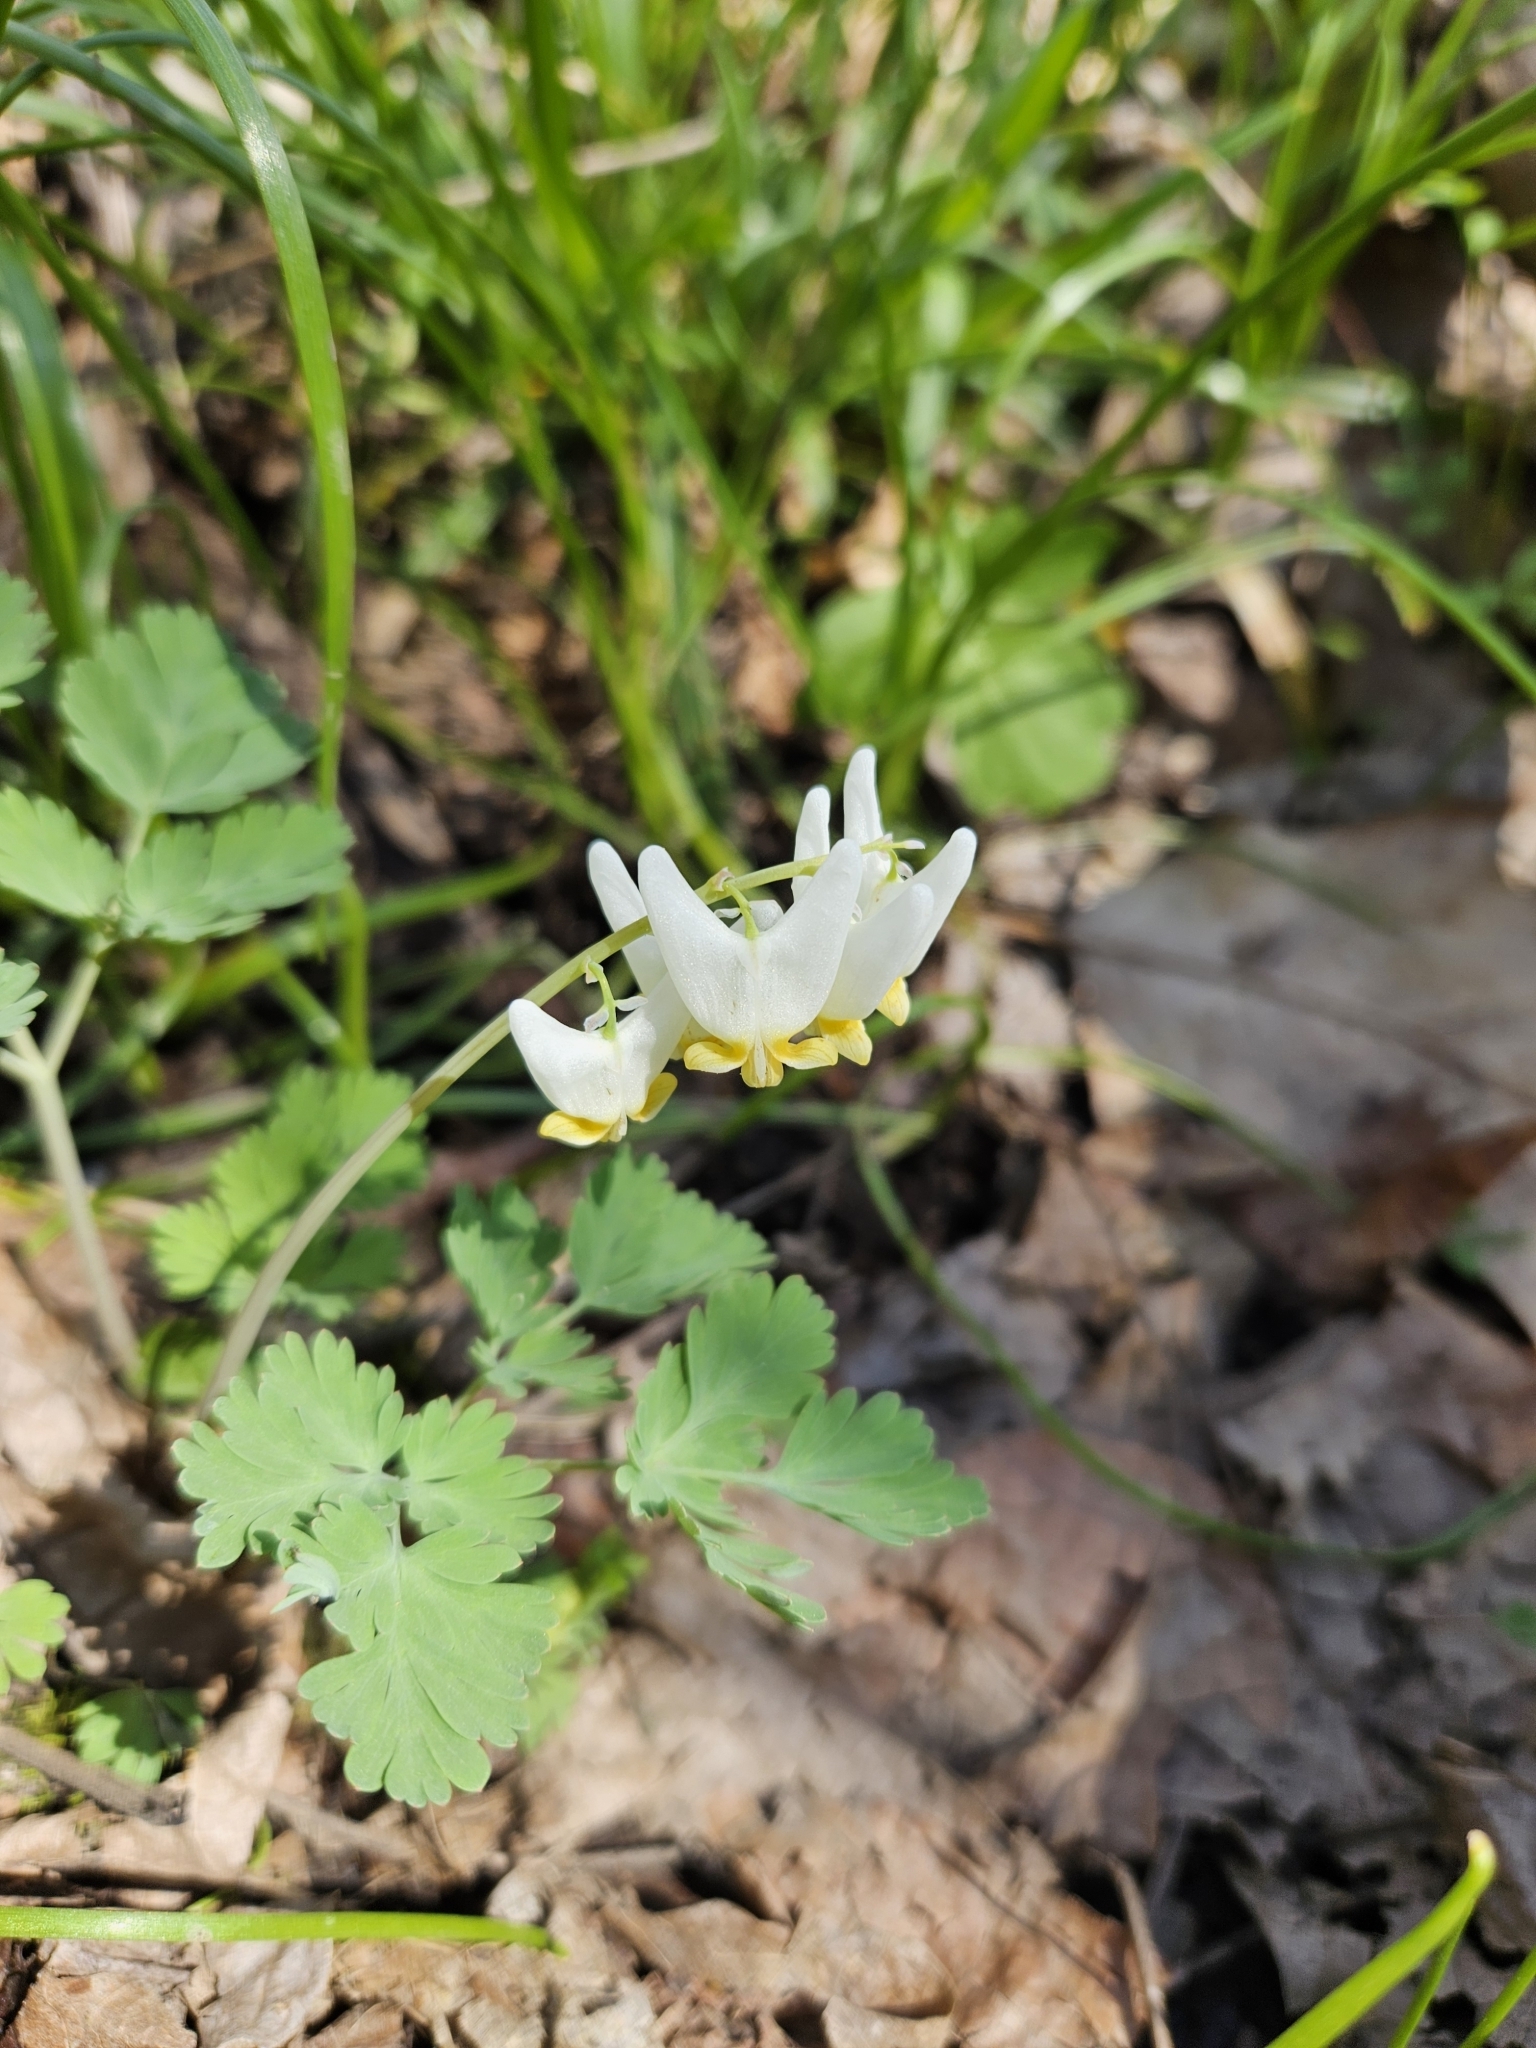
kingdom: Plantae
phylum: Tracheophyta
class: Magnoliopsida
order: Ranunculales
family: Papaveraceae
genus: Dicentra
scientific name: Dicentra cucullaria
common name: Dutchman's breeches
